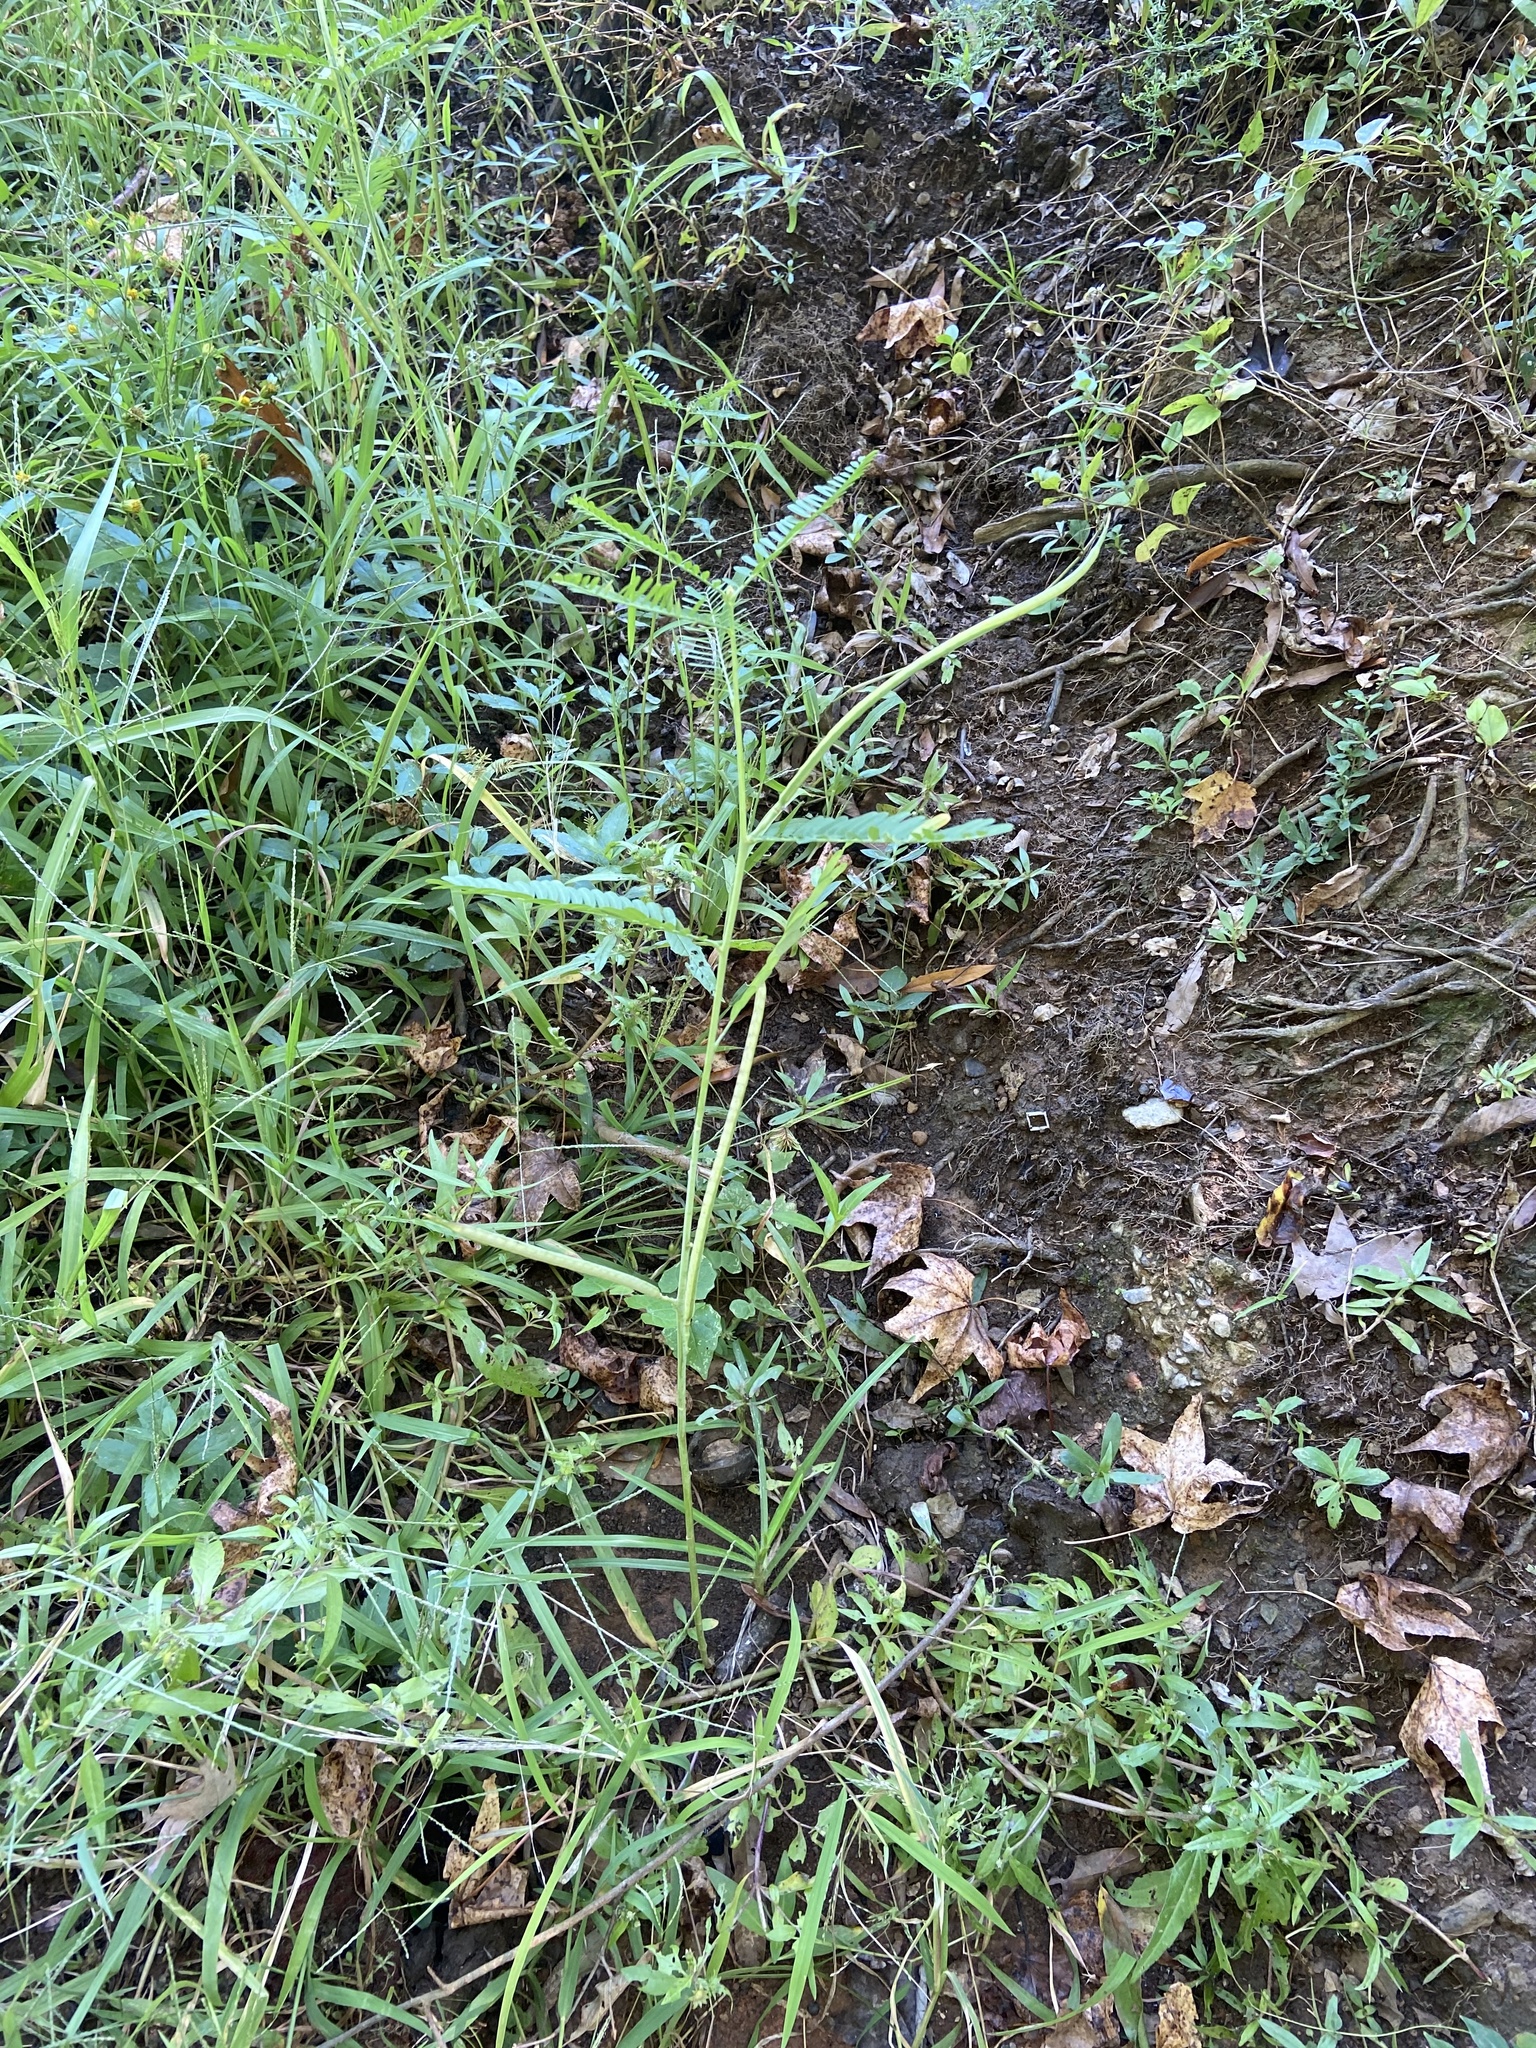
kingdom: Plantae
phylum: Tracheophyta
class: Magnoliopsida
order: Fabales
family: Fabaceae
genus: Sesbania
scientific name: Sesbania herbacea
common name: Bigpod sesbania
